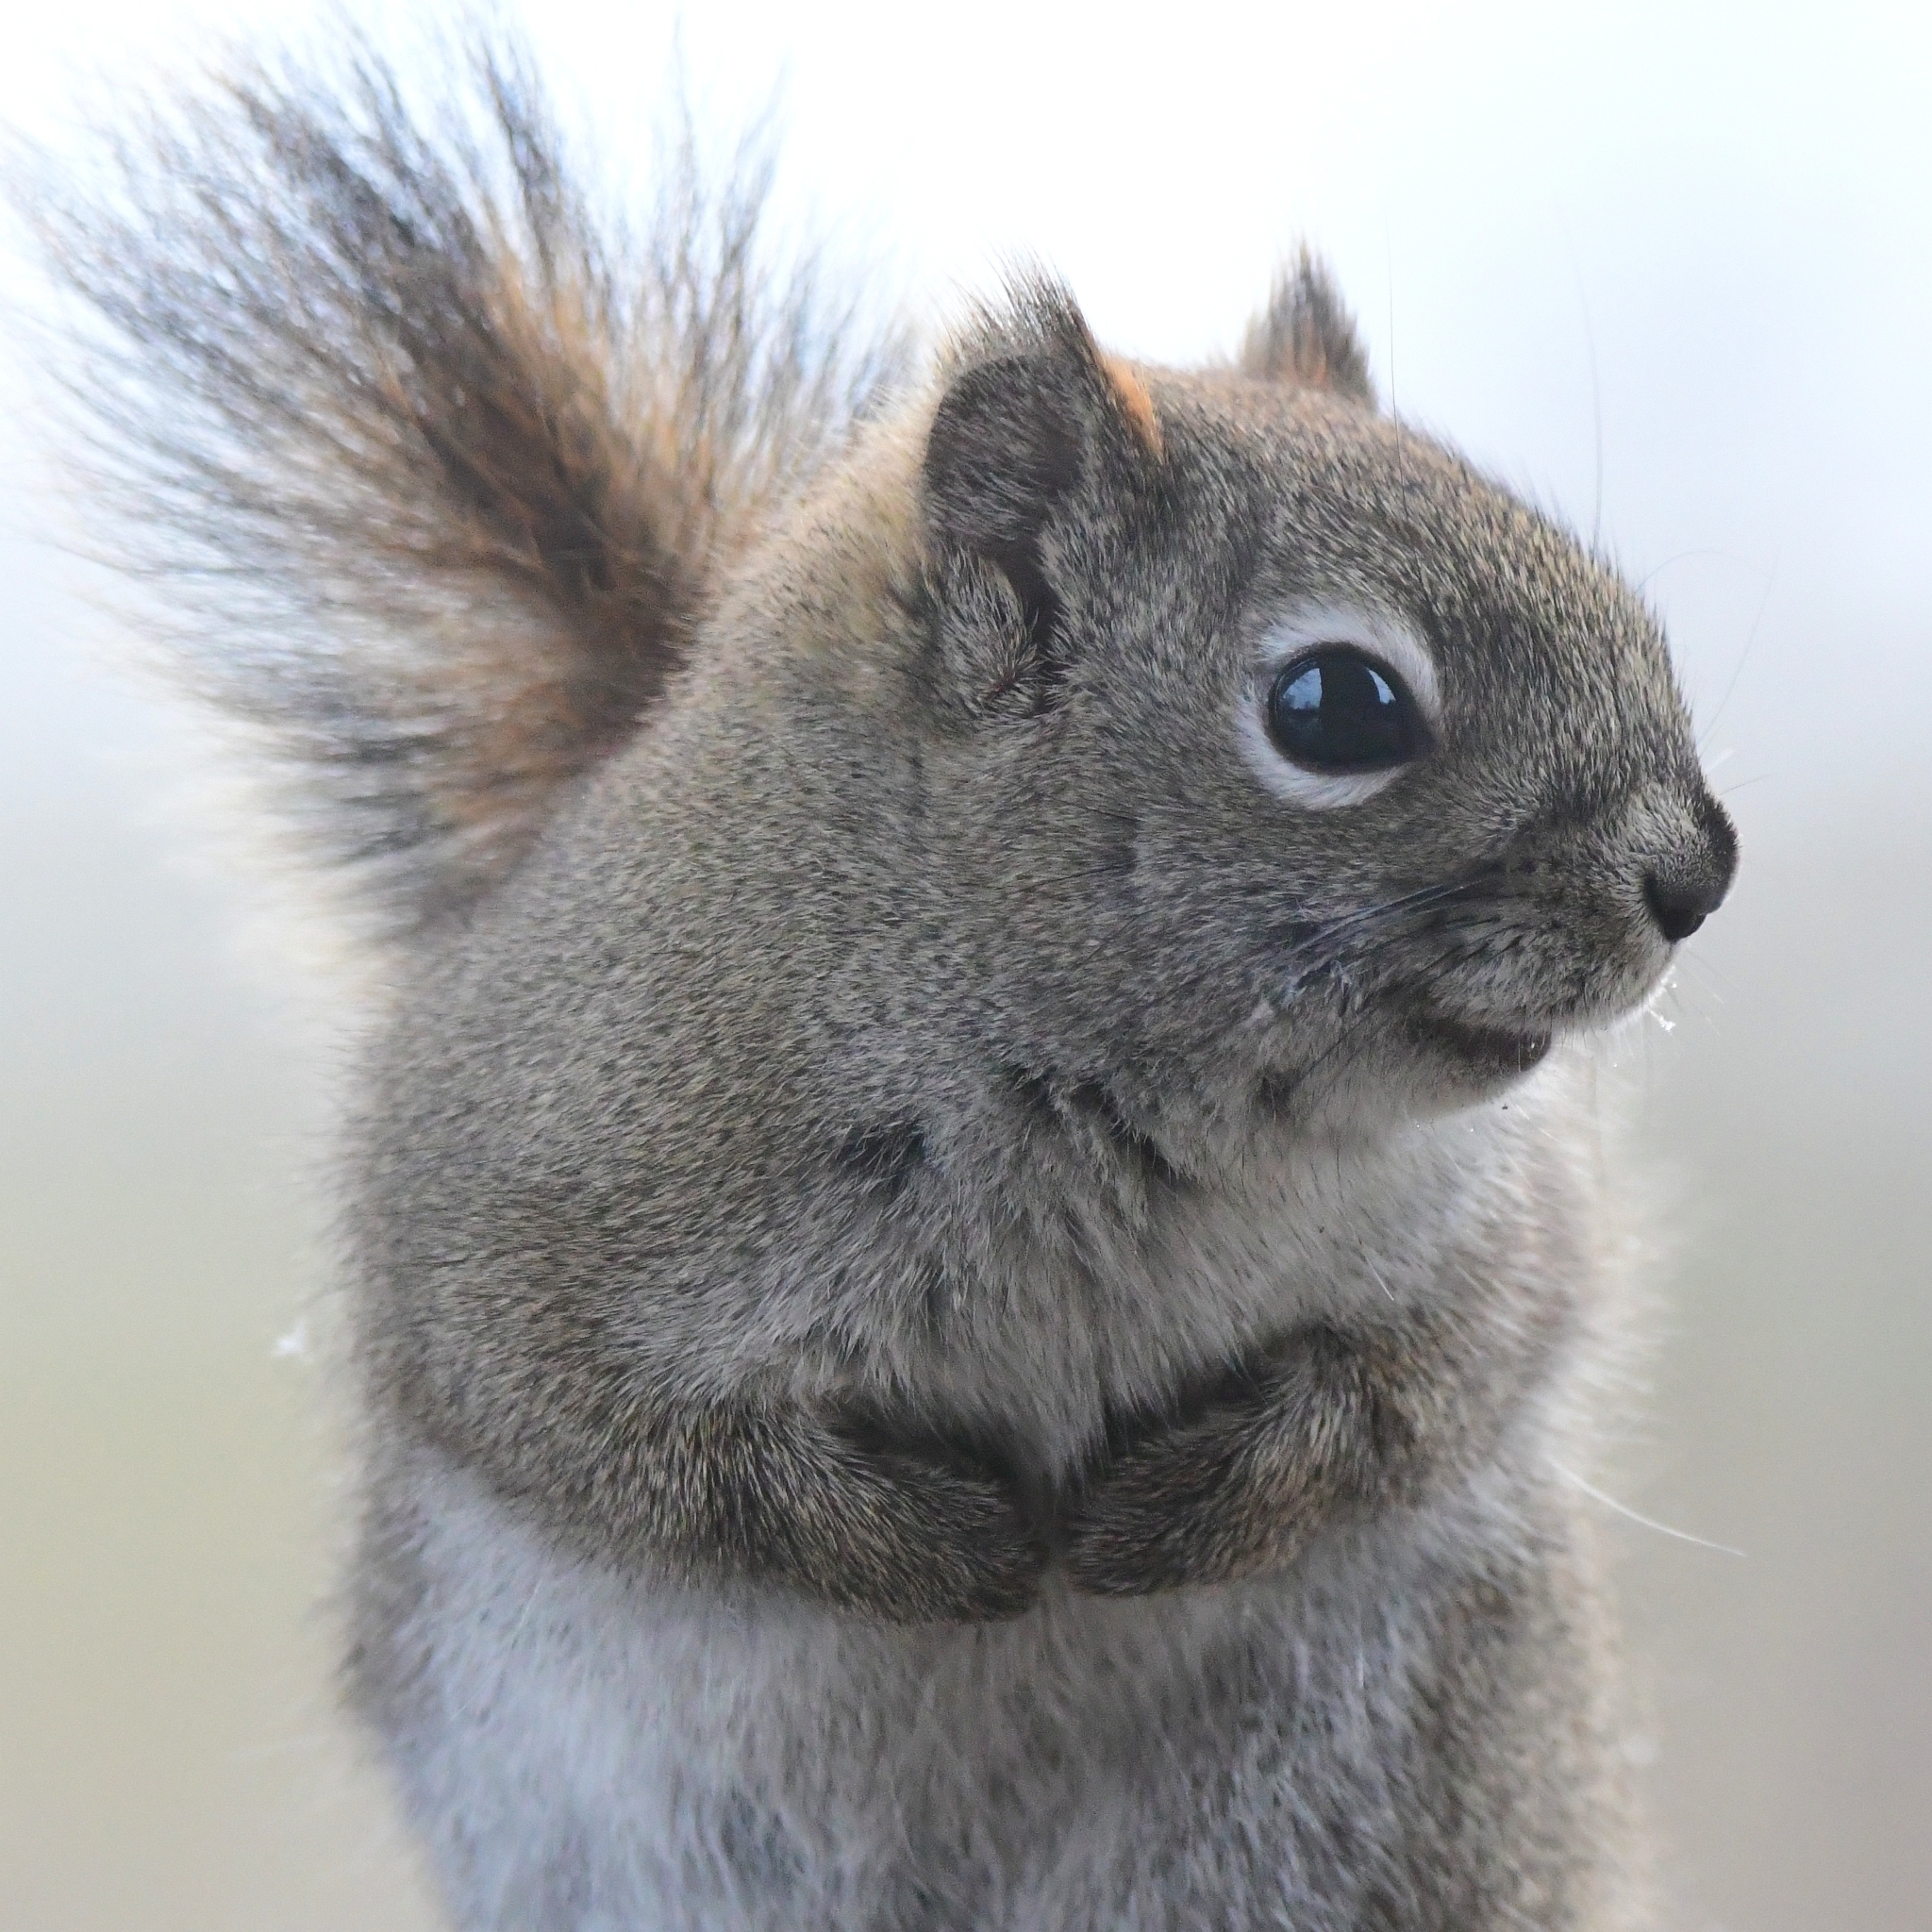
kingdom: Animalia
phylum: Chordata
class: Mammalia
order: Rodentia
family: Sciuridae
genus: Tamiasciurus
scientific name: Tamiasciurus hudsonicus
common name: Red squirrel
